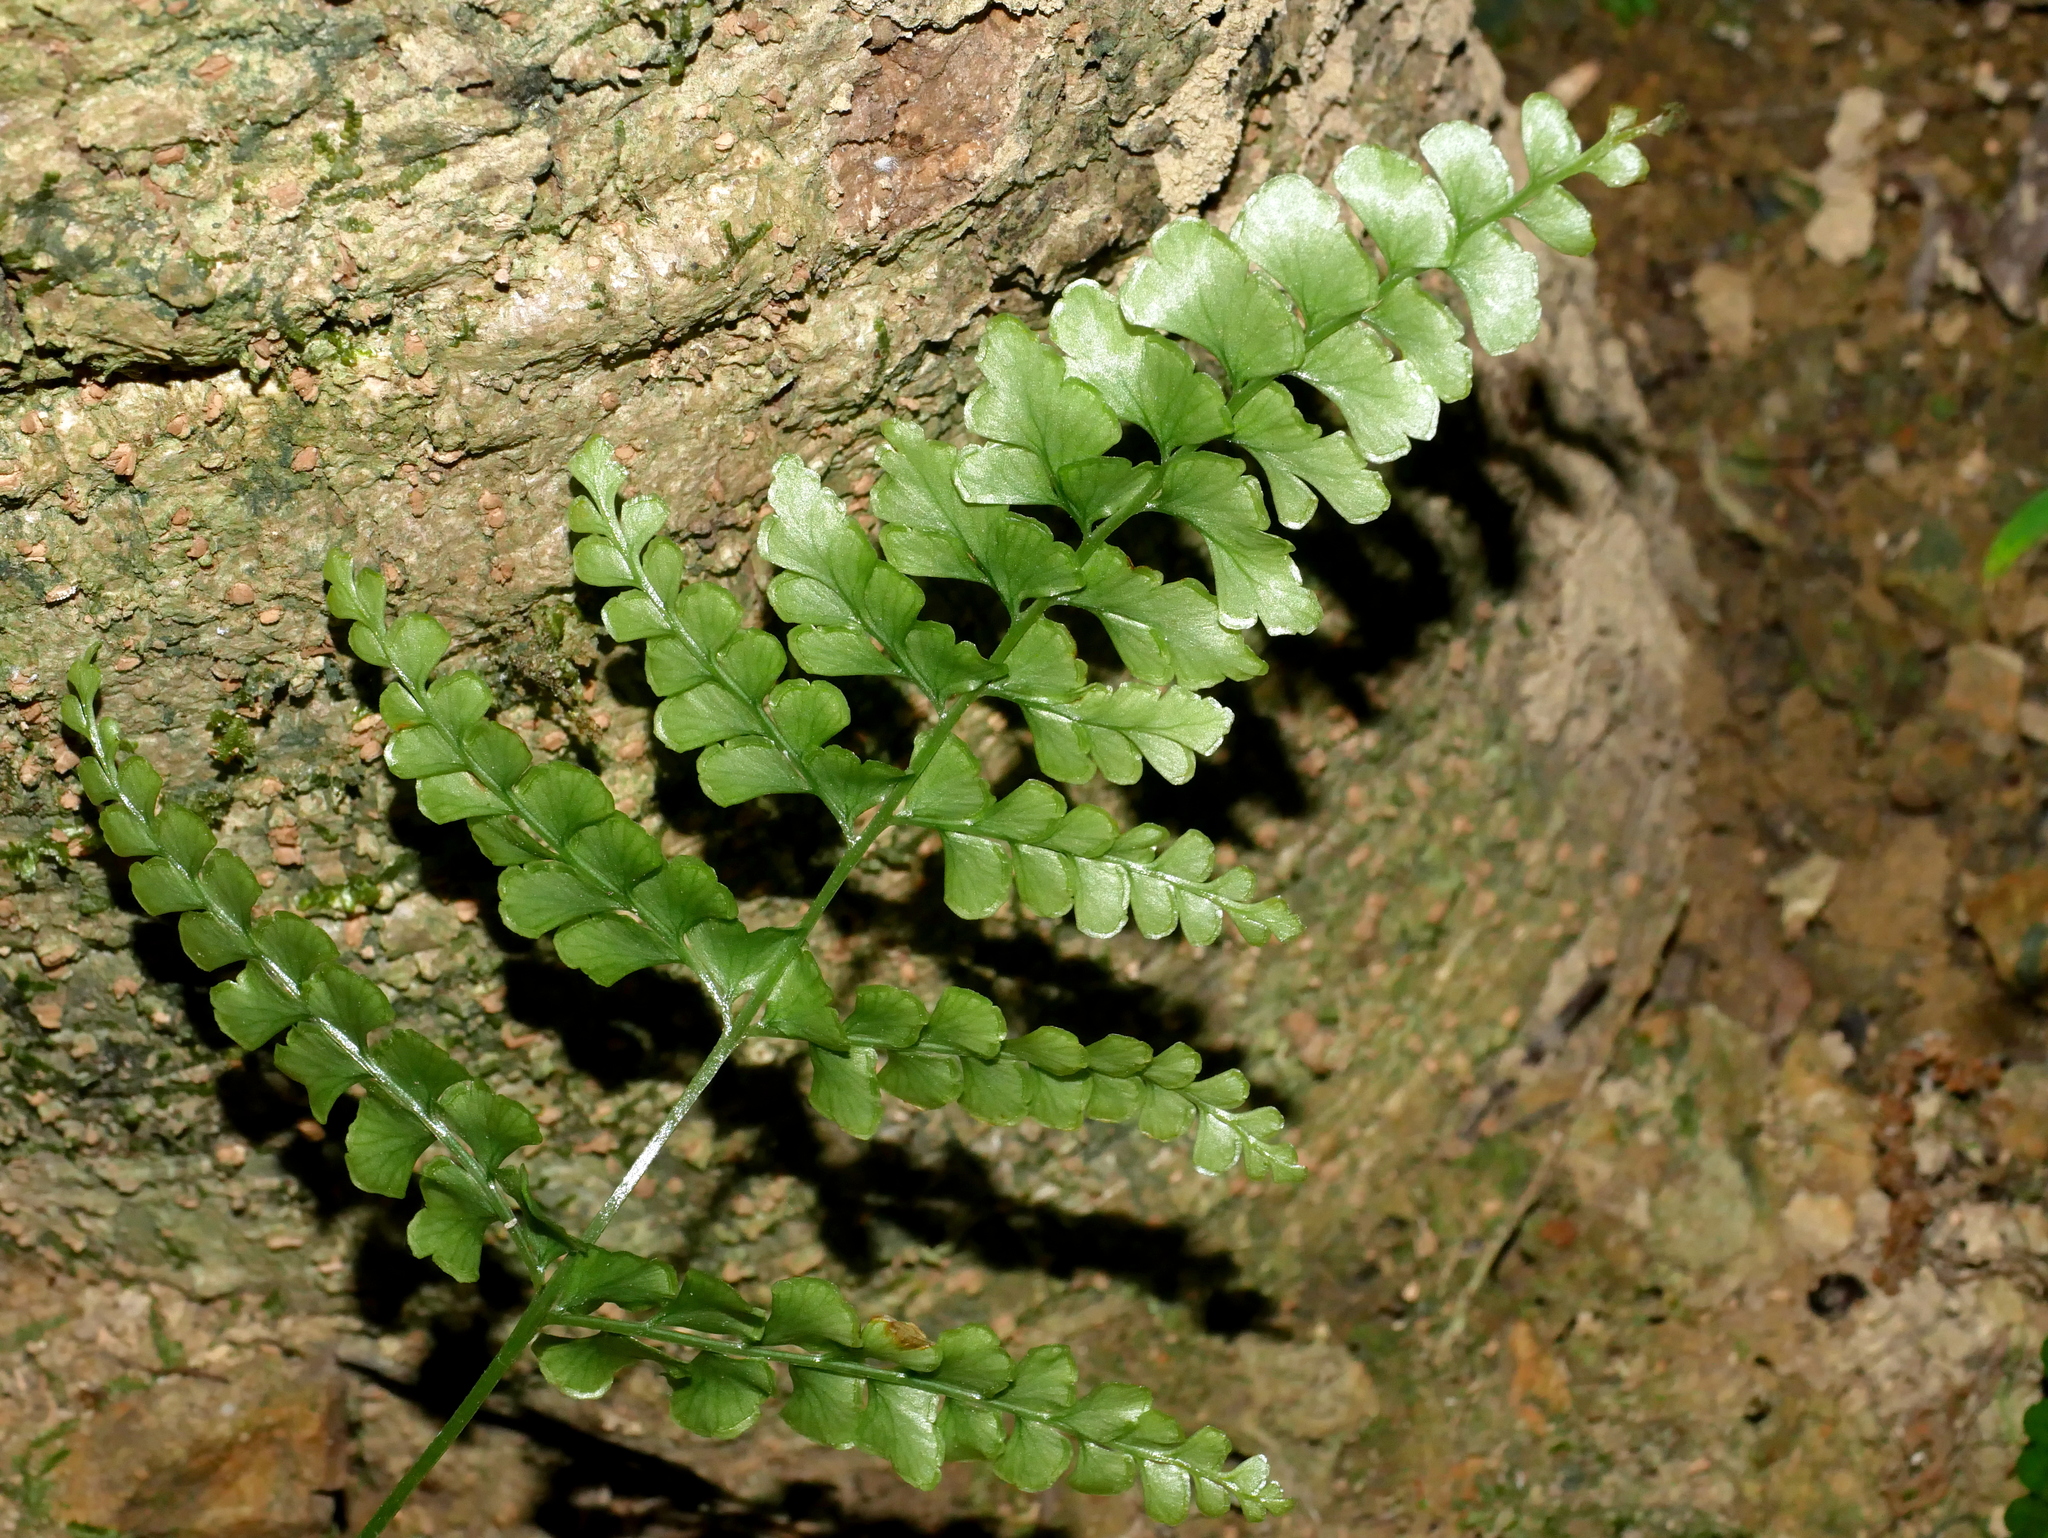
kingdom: Plantae
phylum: Tracheophyta
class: Polypodiopsida
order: Polypodiales
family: Lindsaeaceae
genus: Lindsaea
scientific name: Lindsaea bonii
